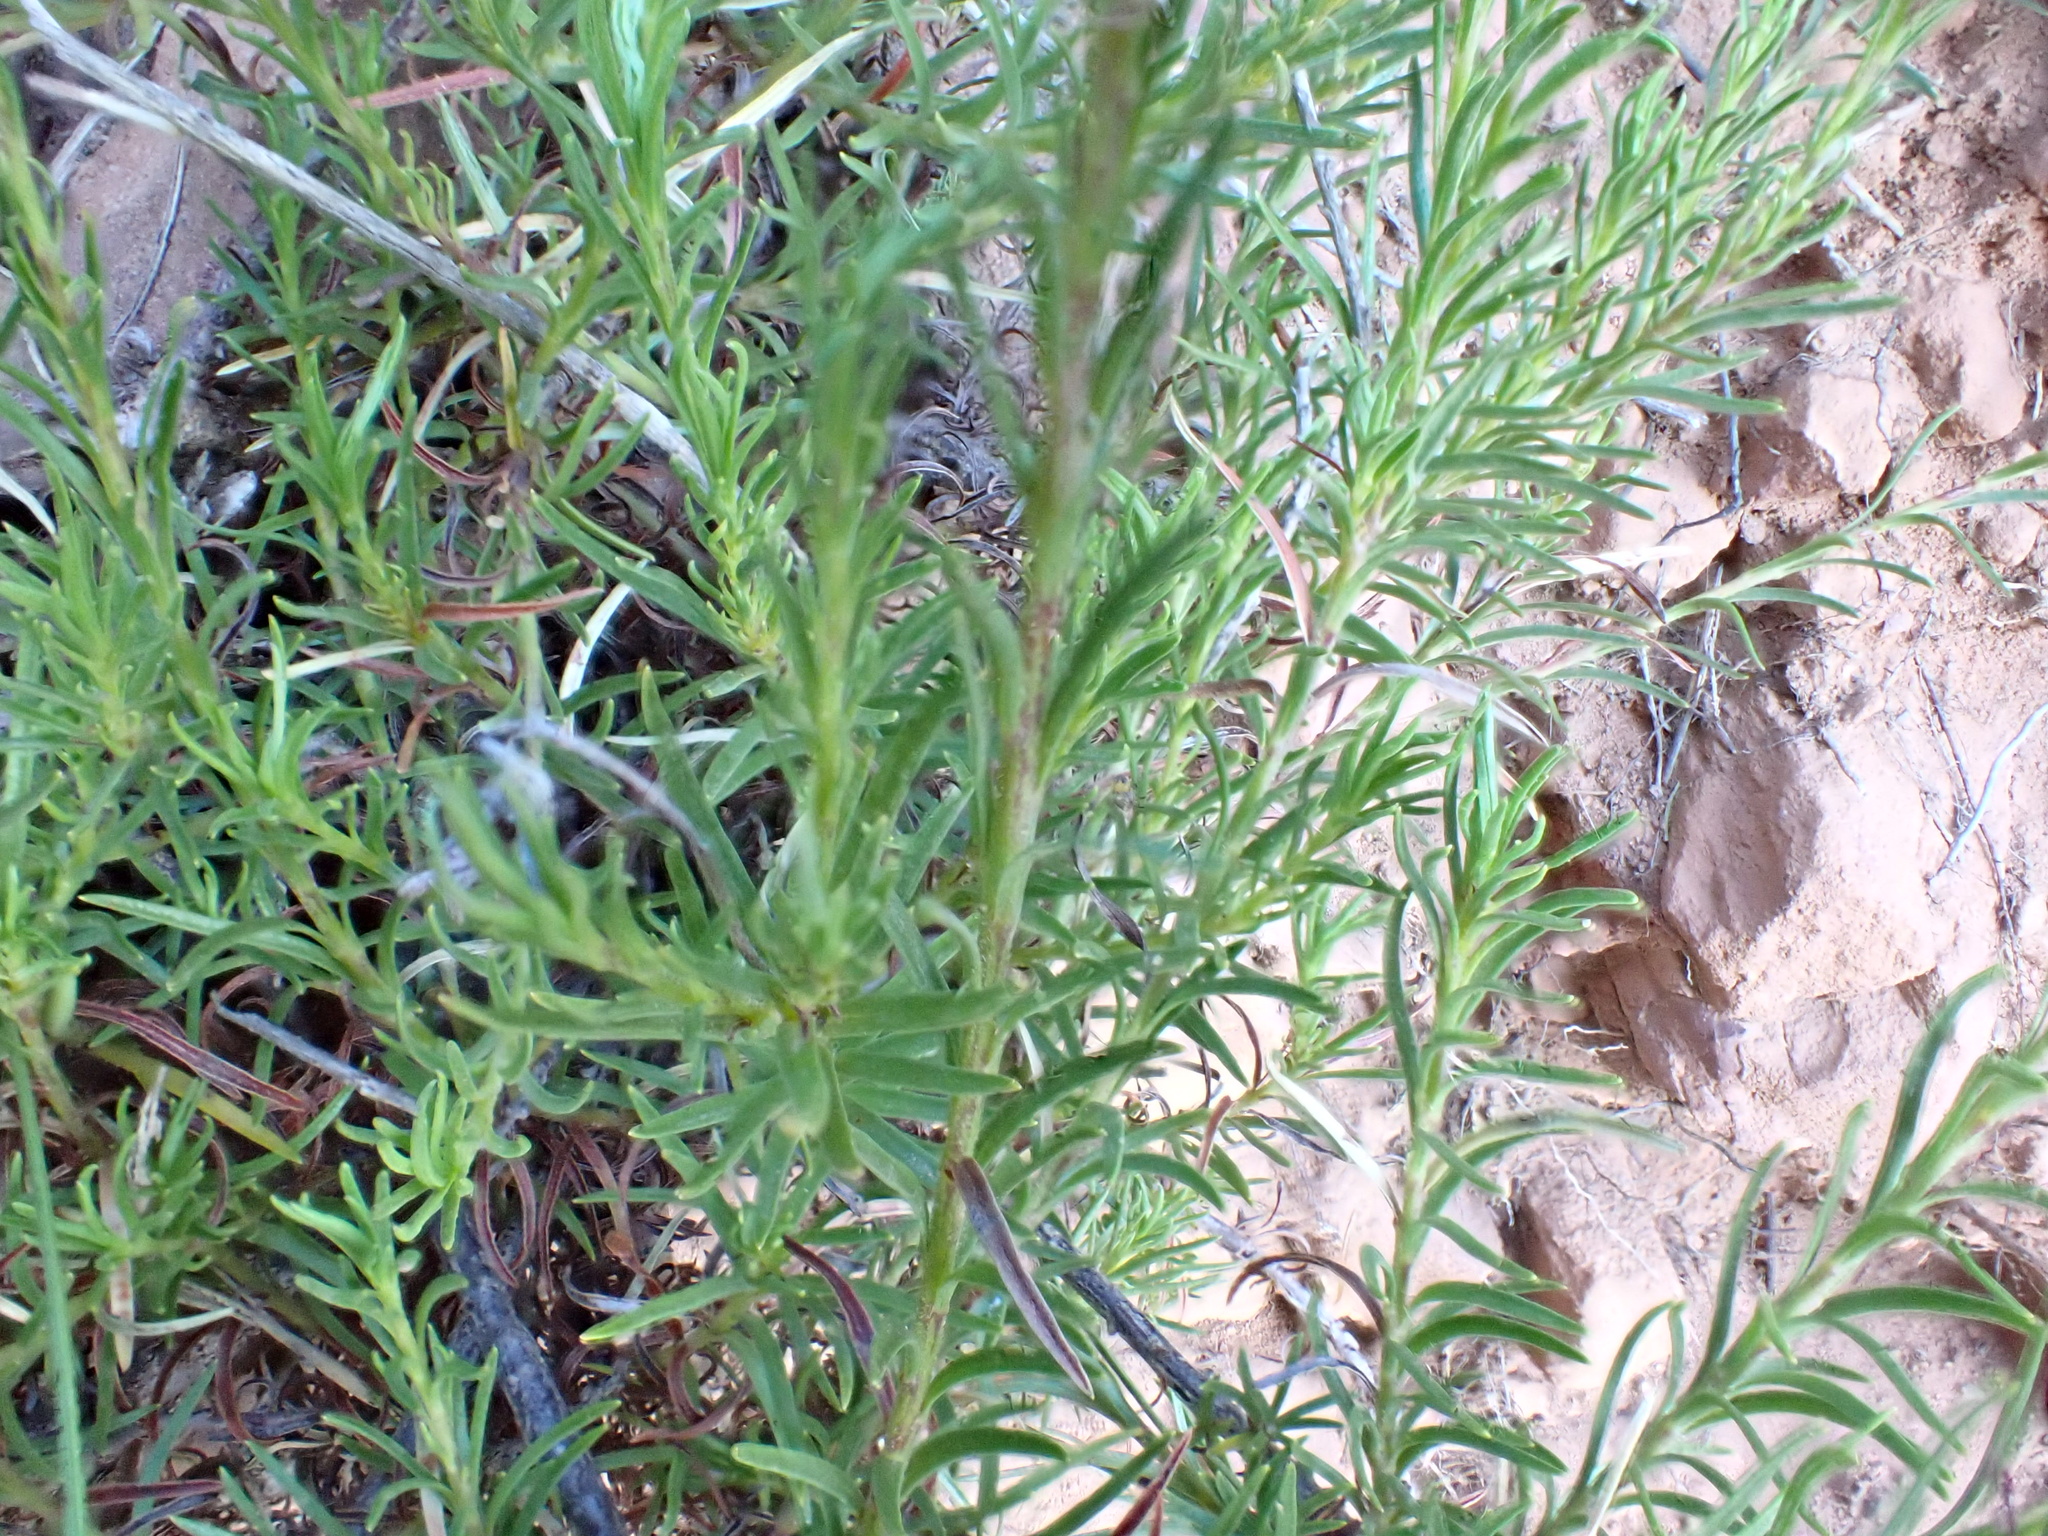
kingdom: Plantae
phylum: Tracheophyta
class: Magnoliopsida
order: Asterales
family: Campanulaceae
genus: Lobelia
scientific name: Lobelia pinifolia
